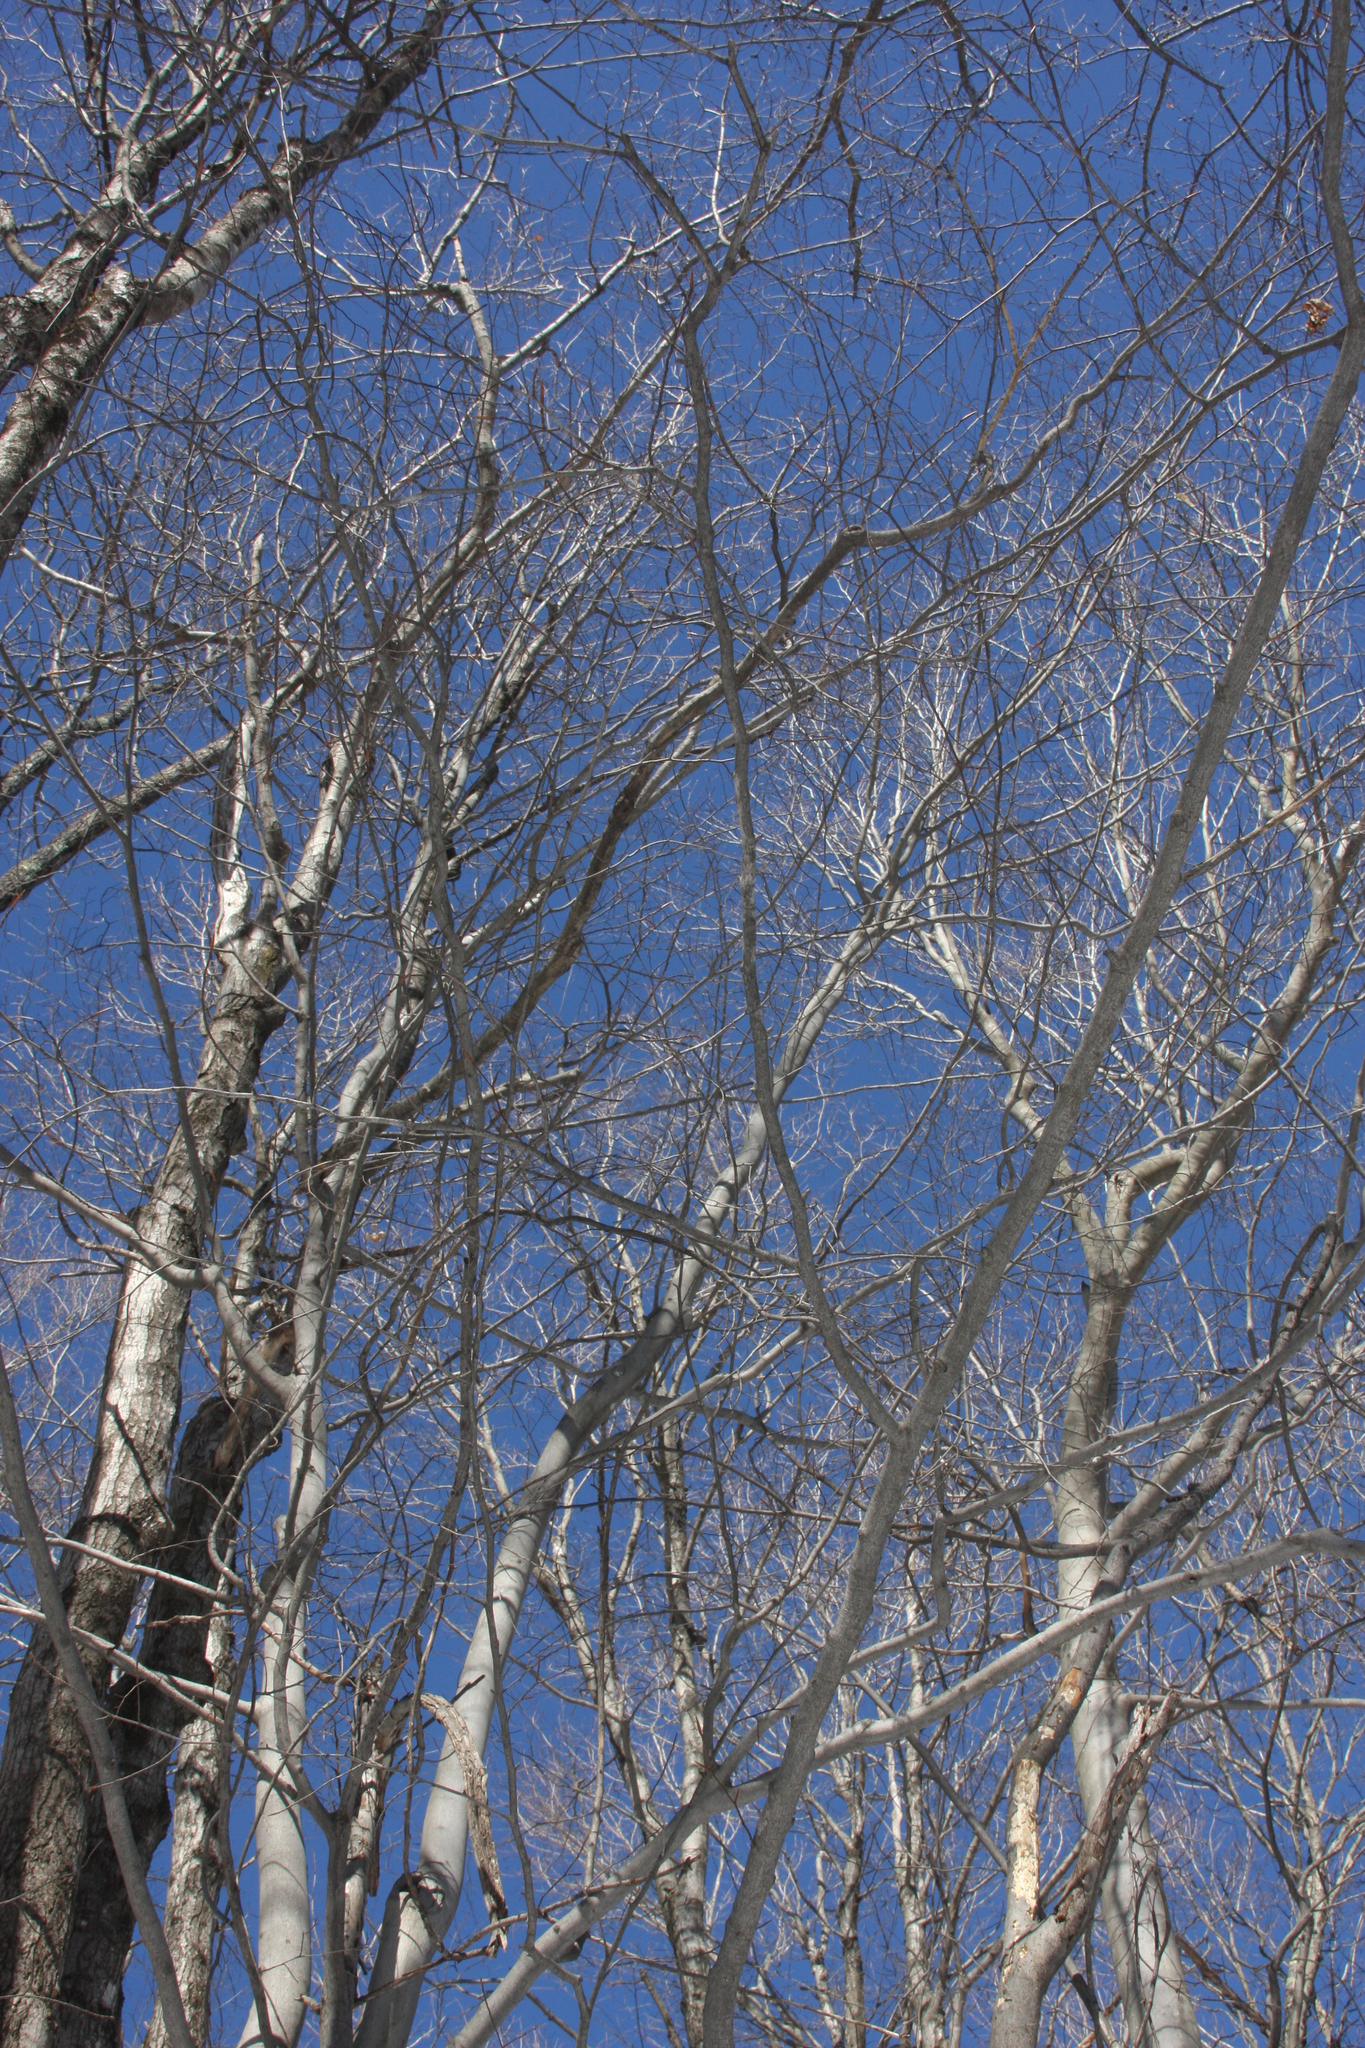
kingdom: Plantae
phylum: Tracheophyta
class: Magnoliopsida
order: Fagales
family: Fagaceae
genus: Fagus
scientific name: Fagus grandifolia
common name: American beech
